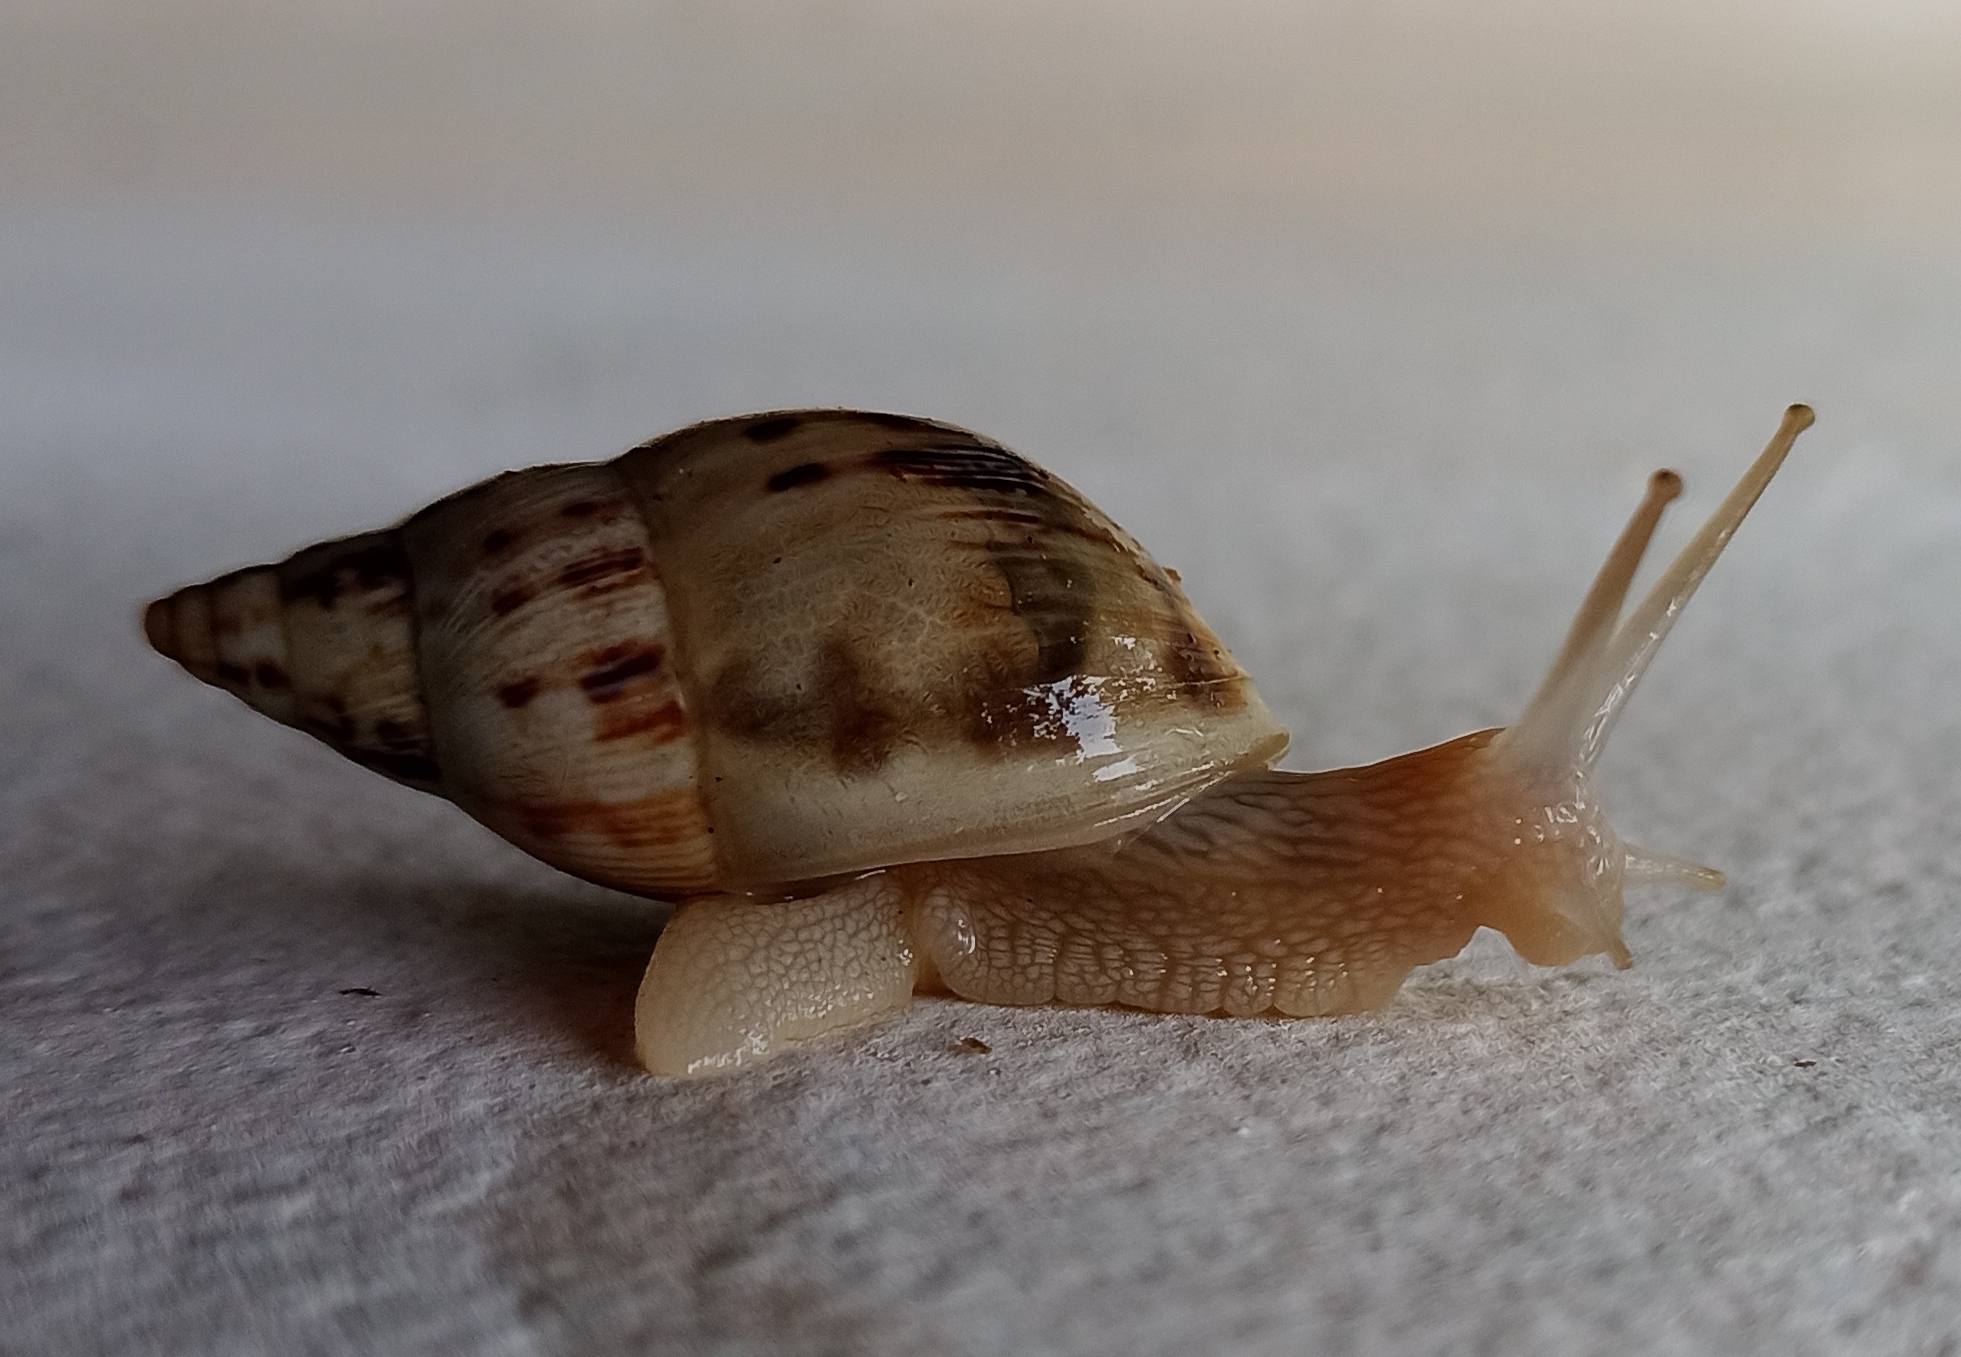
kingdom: Animalia
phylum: Mollusca
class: Gastropoda
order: Stylommatophora
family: Bulimulidae
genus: Drymaeus
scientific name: Drymaeus papyraceus
